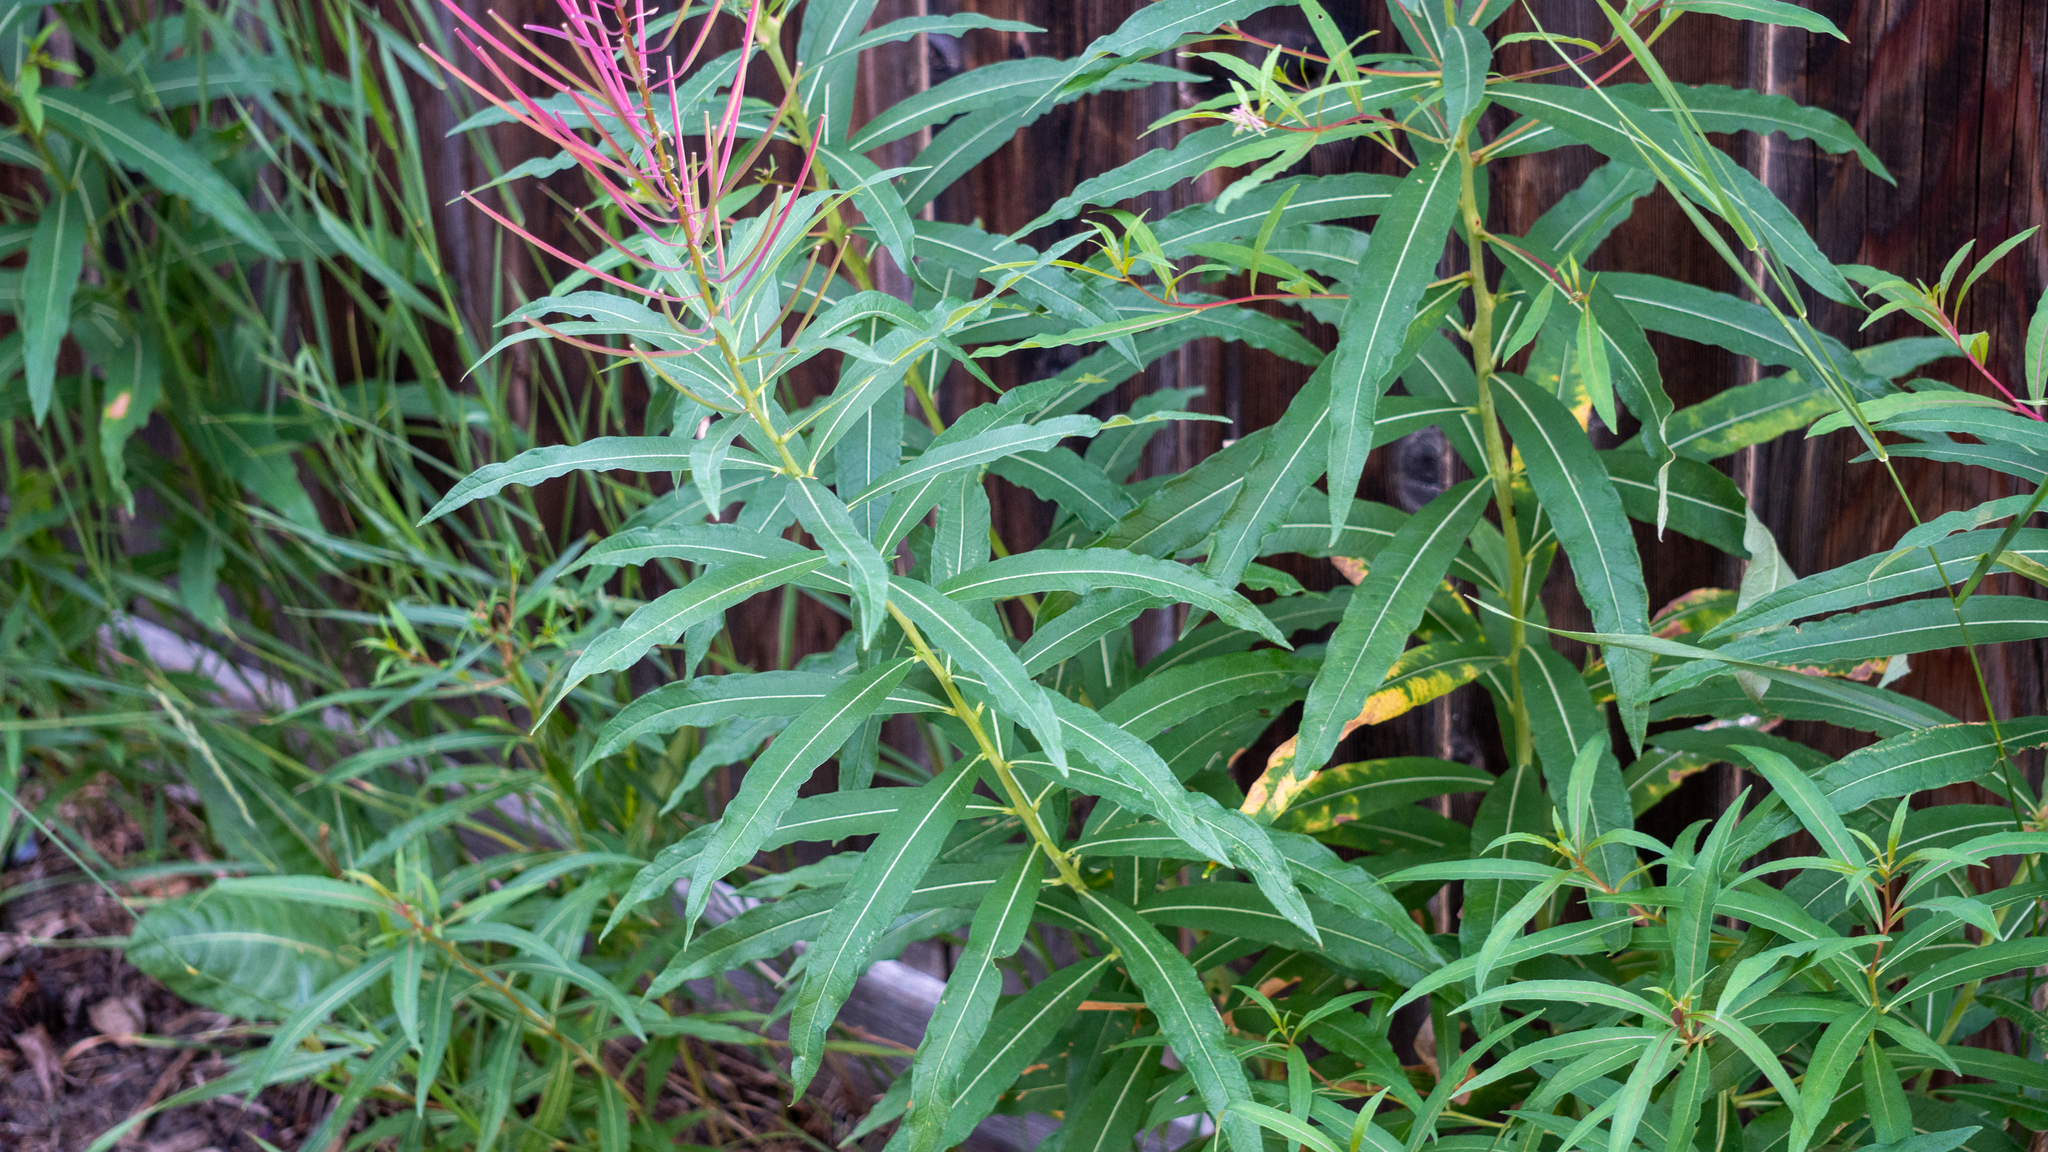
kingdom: Plantae
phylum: Tracheophyta
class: Magnoliopsida
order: Myrtales
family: Onagraceae
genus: Chamaenerion
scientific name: Chamaenerion angustifolium
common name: Fireweed
